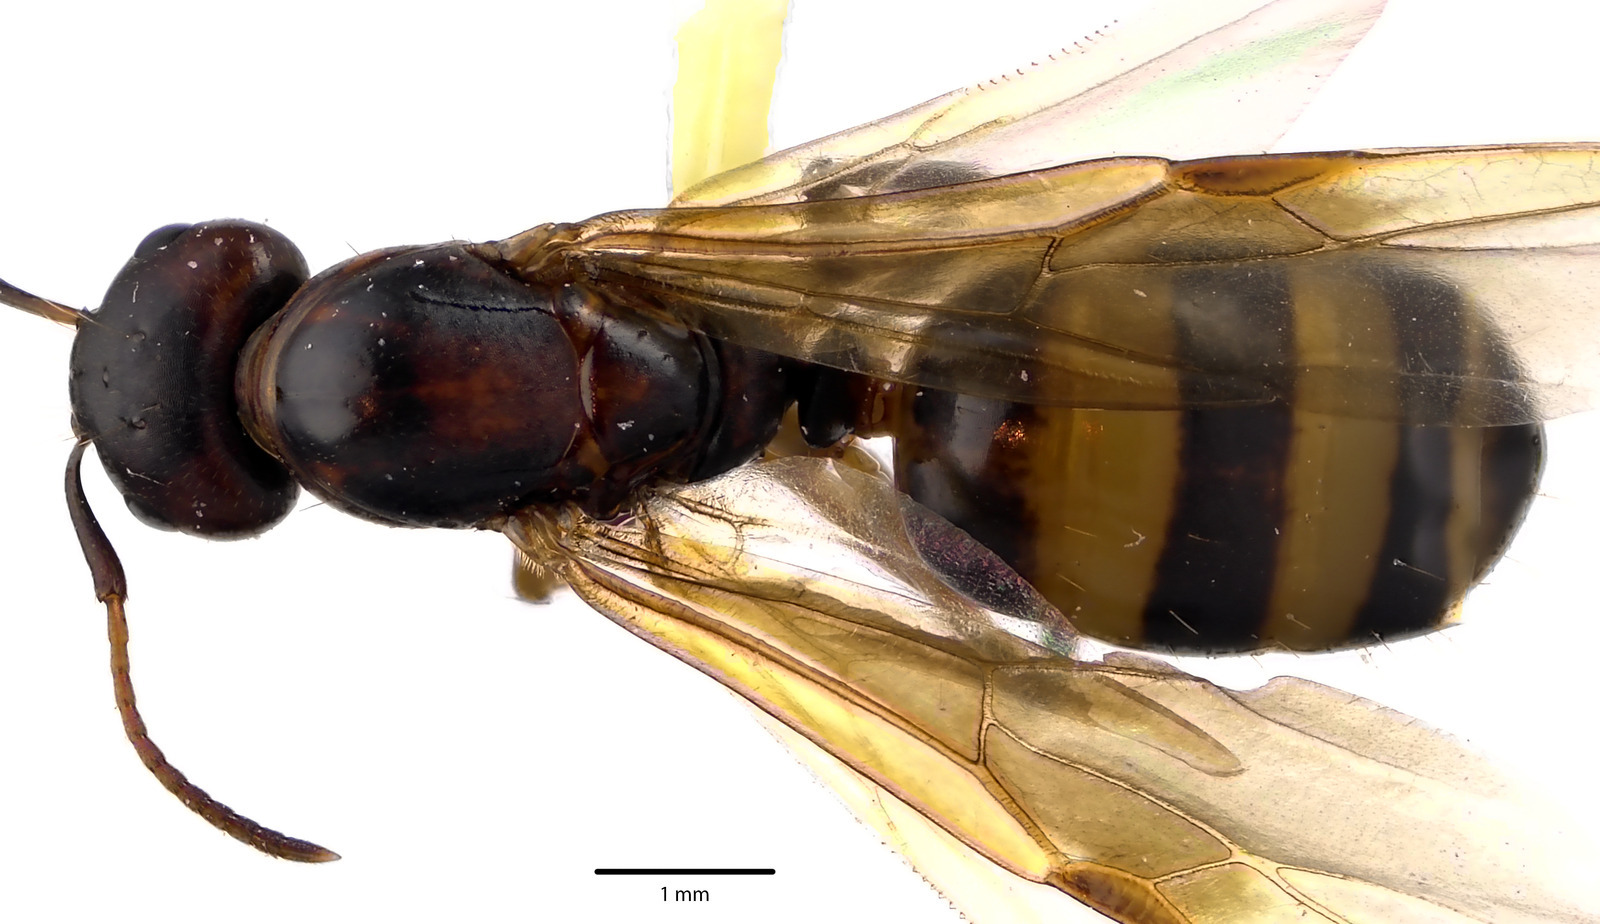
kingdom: Animalia
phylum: Arthropoda
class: Insecta
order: Hymenoptera
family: Formicidae
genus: Camponotus
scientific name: Camponotus subbarbatus
